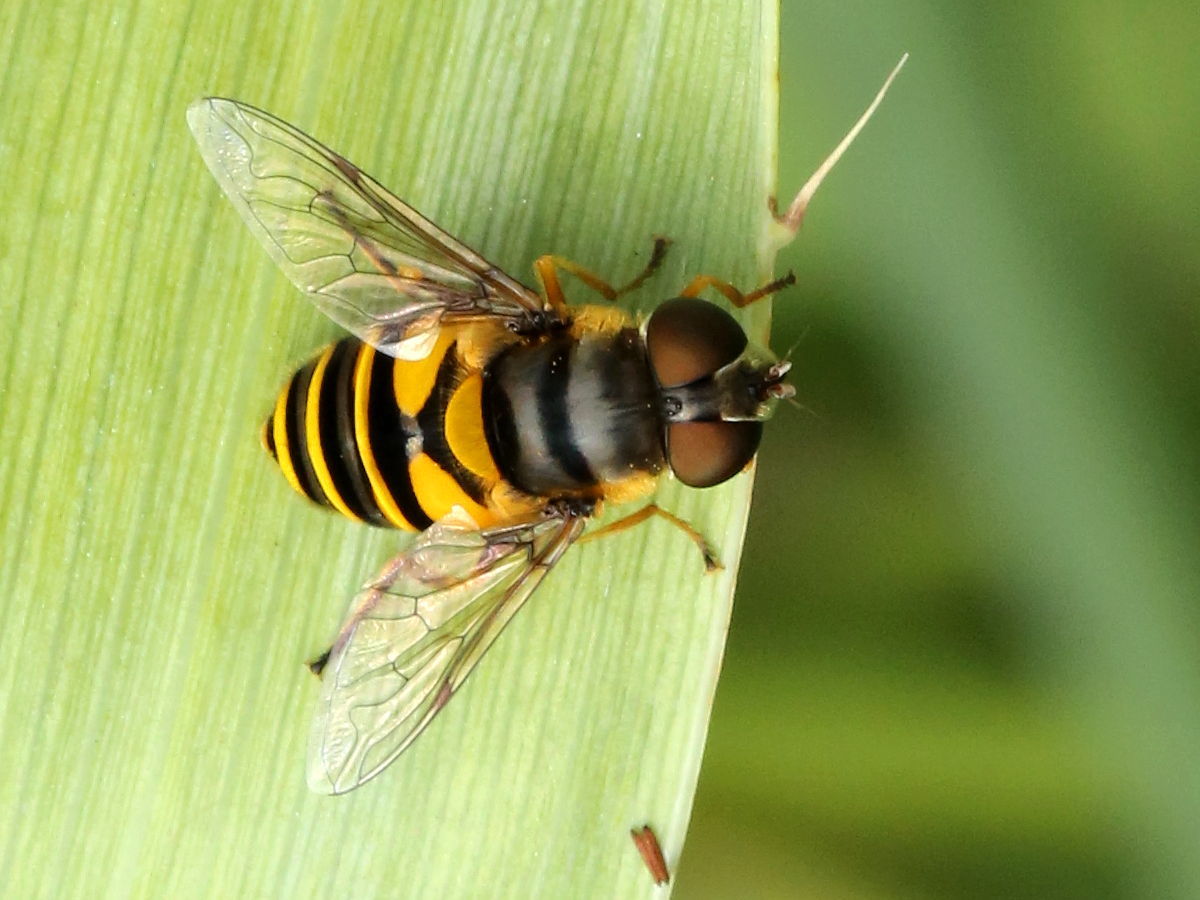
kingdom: Animalia
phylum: Arthropoda
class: Insecta
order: Diptera
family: Syrphidae
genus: Eristalis
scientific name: Eristalis transversa
